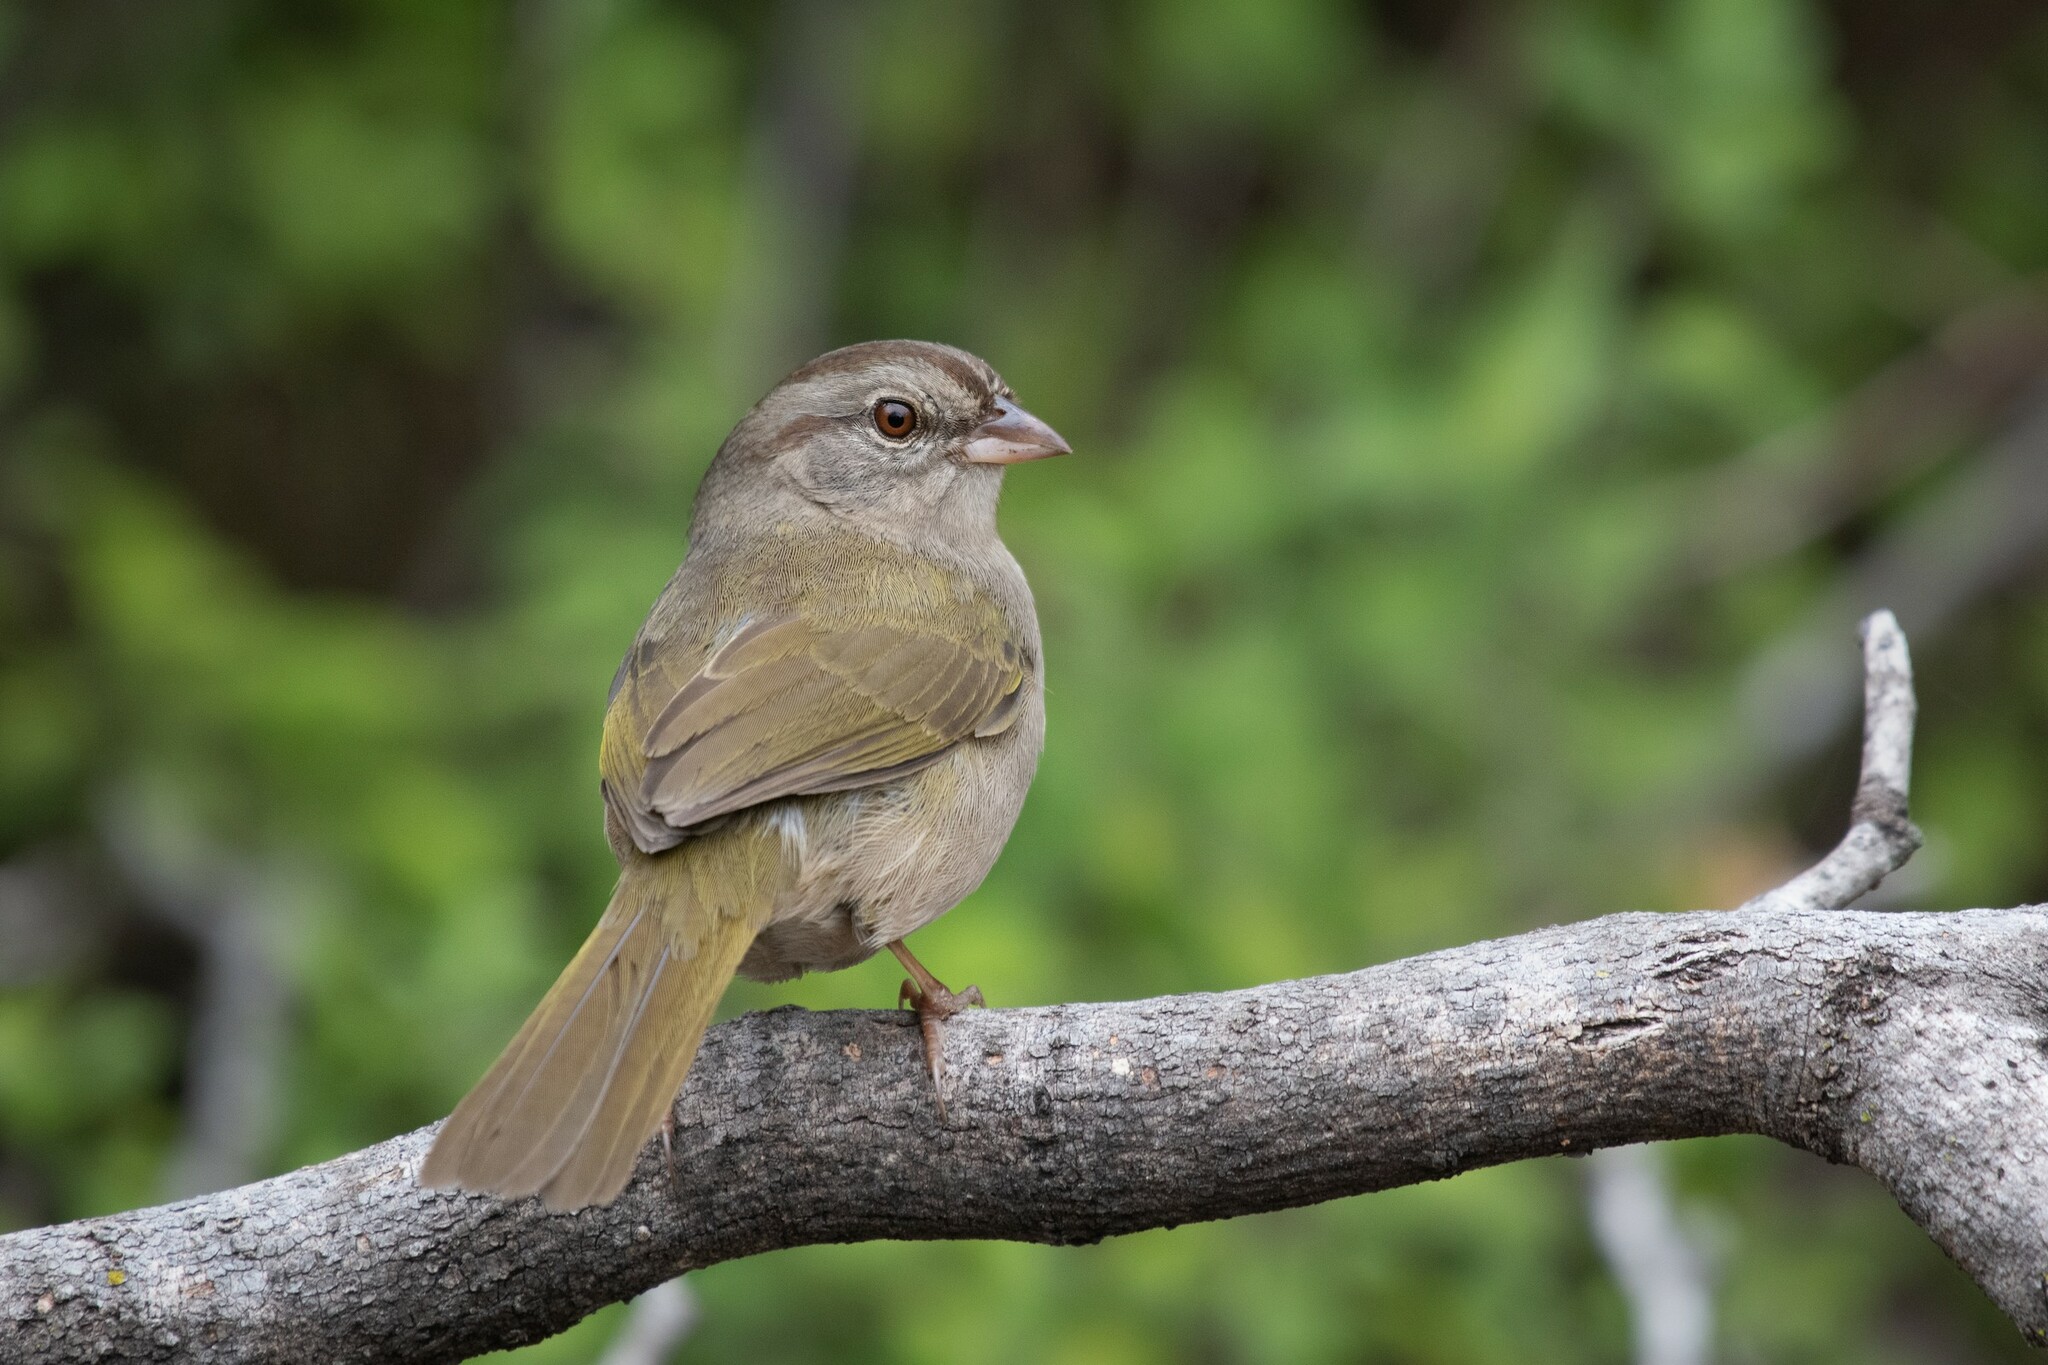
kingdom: Animalia
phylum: Chordata
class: Aves
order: Passeriformes
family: Passerellidae
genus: Arremonops
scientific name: Arremonops rufivirgatus
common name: Olive sparrow
